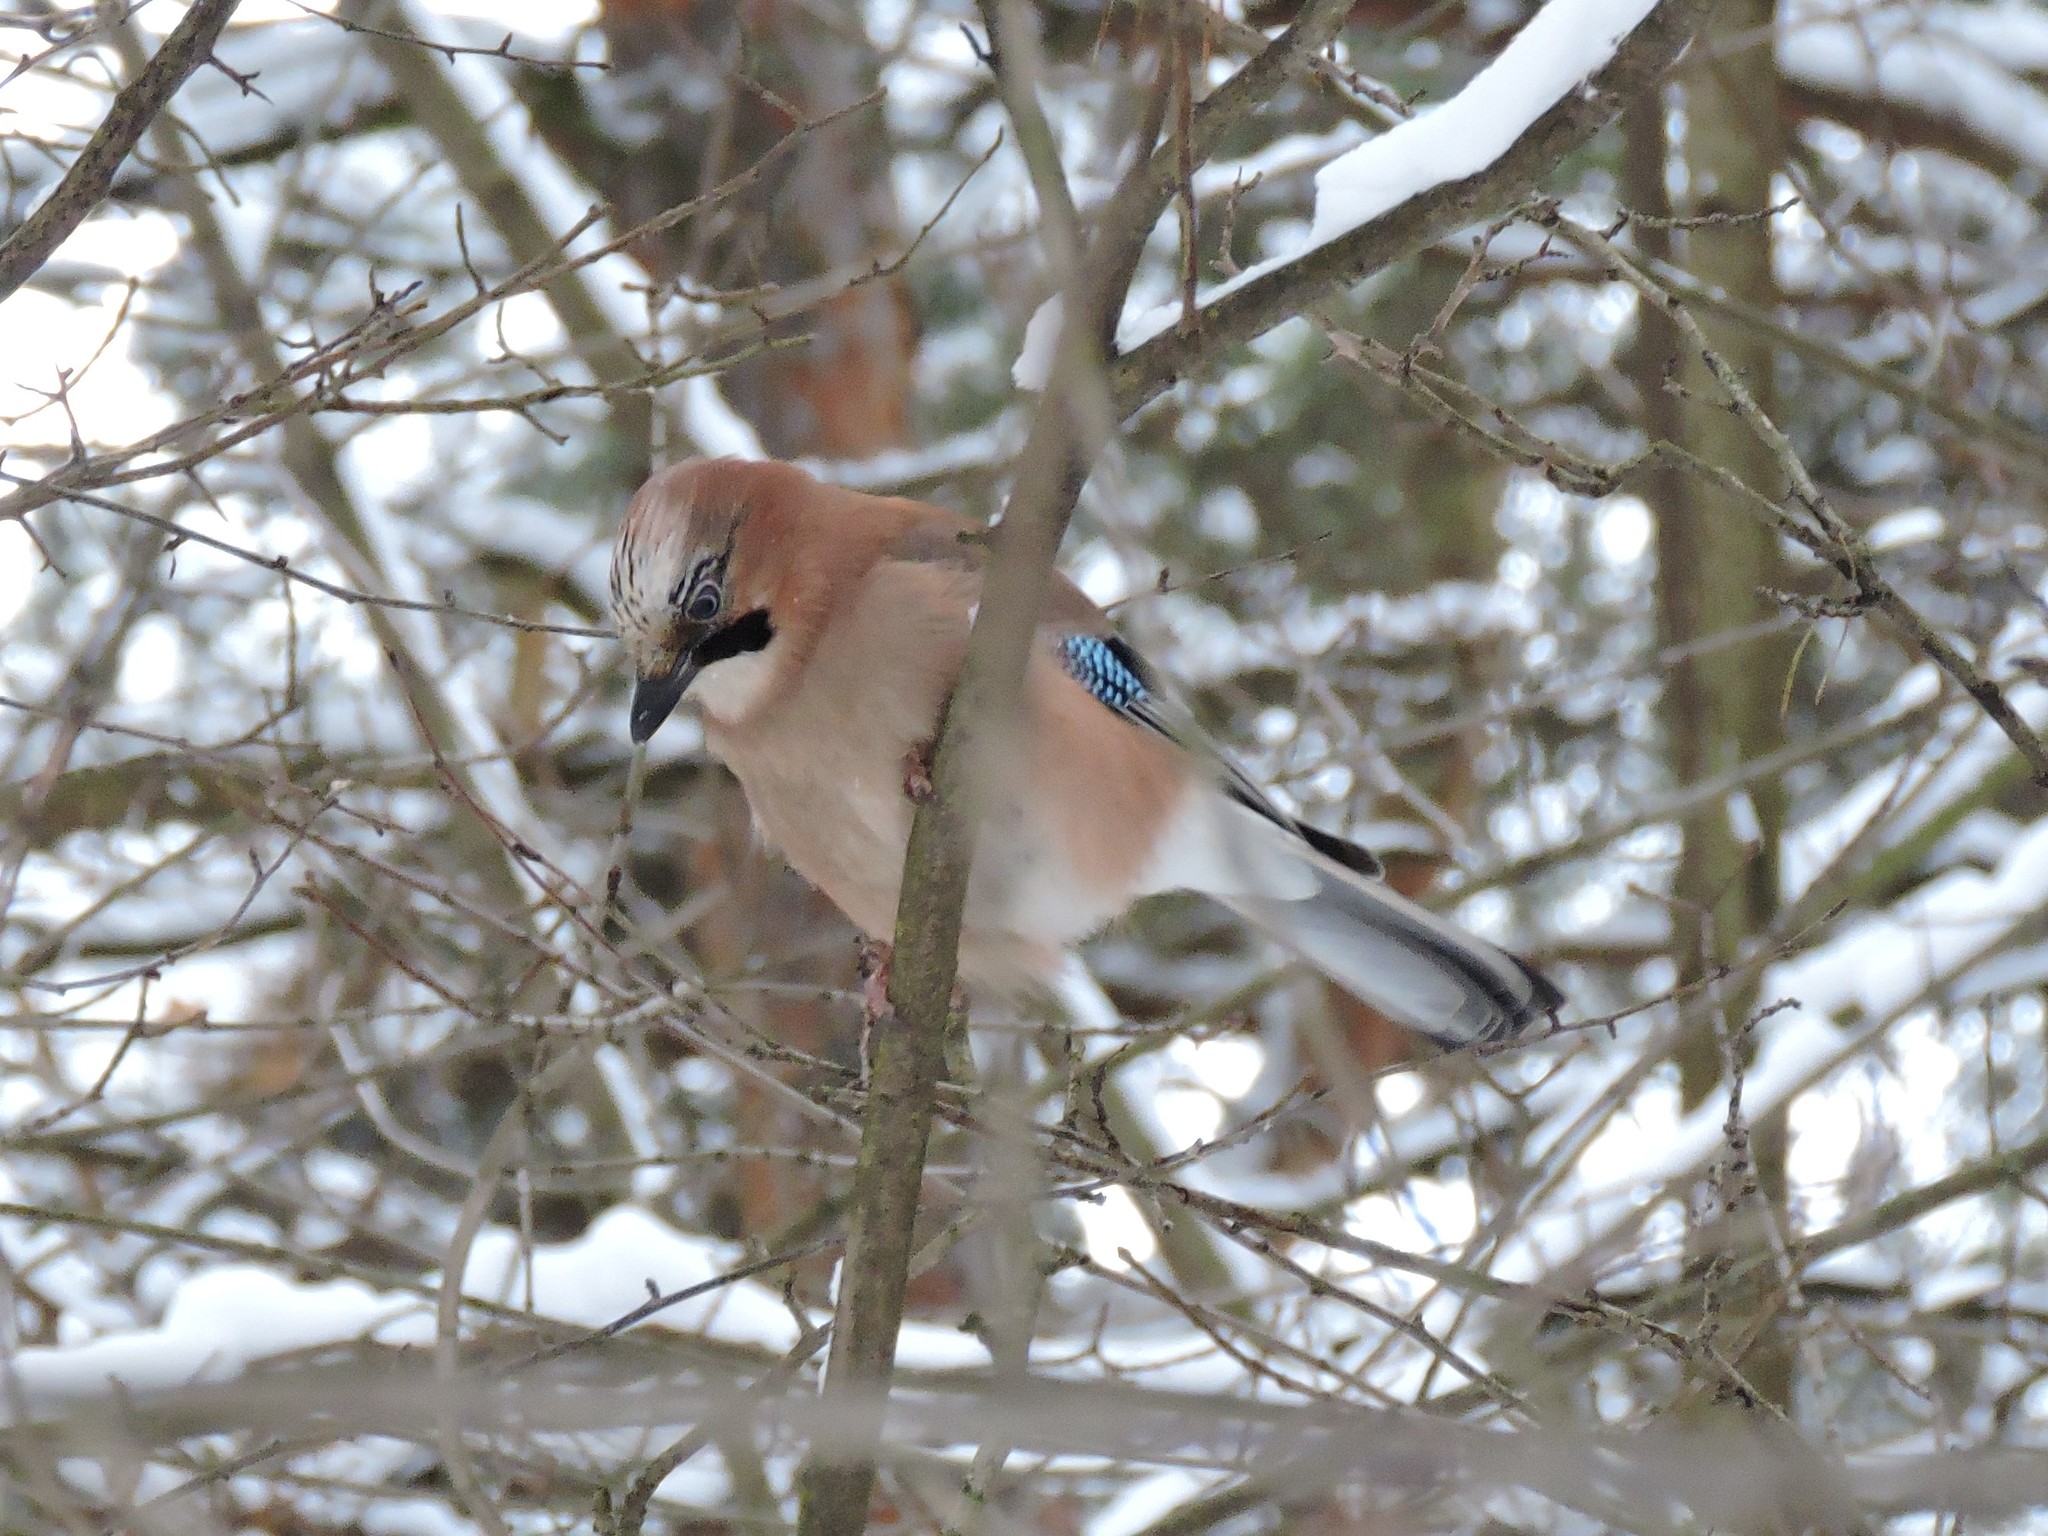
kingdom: Animalia
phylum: Chordata
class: Aves
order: Passeriformes
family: Corvidae
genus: Garrulus
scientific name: Garrulus glandarius
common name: Eurasian jay
